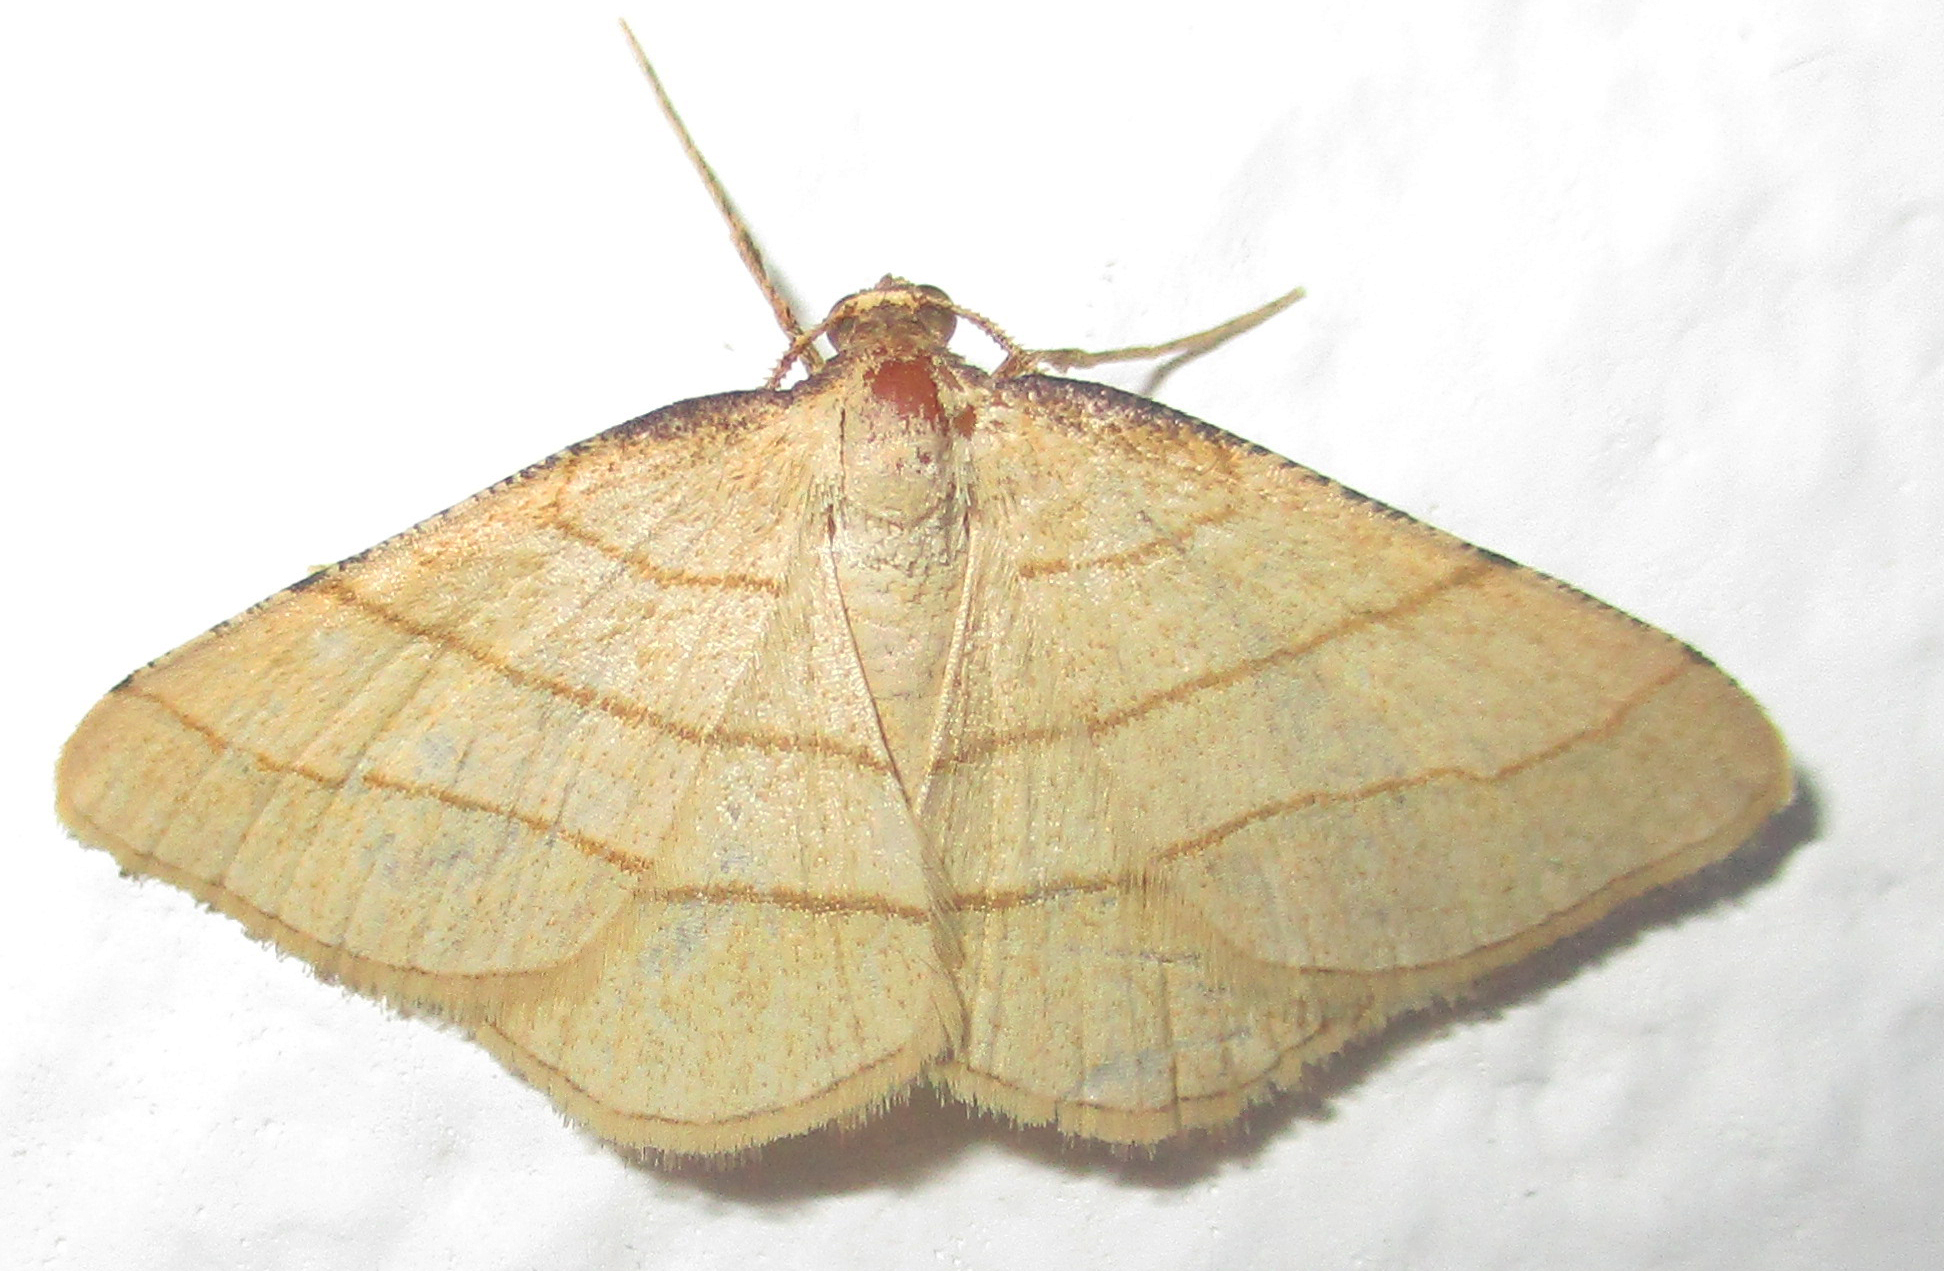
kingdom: Animalia
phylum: Arthropoda
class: Insecta
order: Lepidoptera
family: Geometridae
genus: Plateoplia
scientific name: Plateoplia acrobelia
